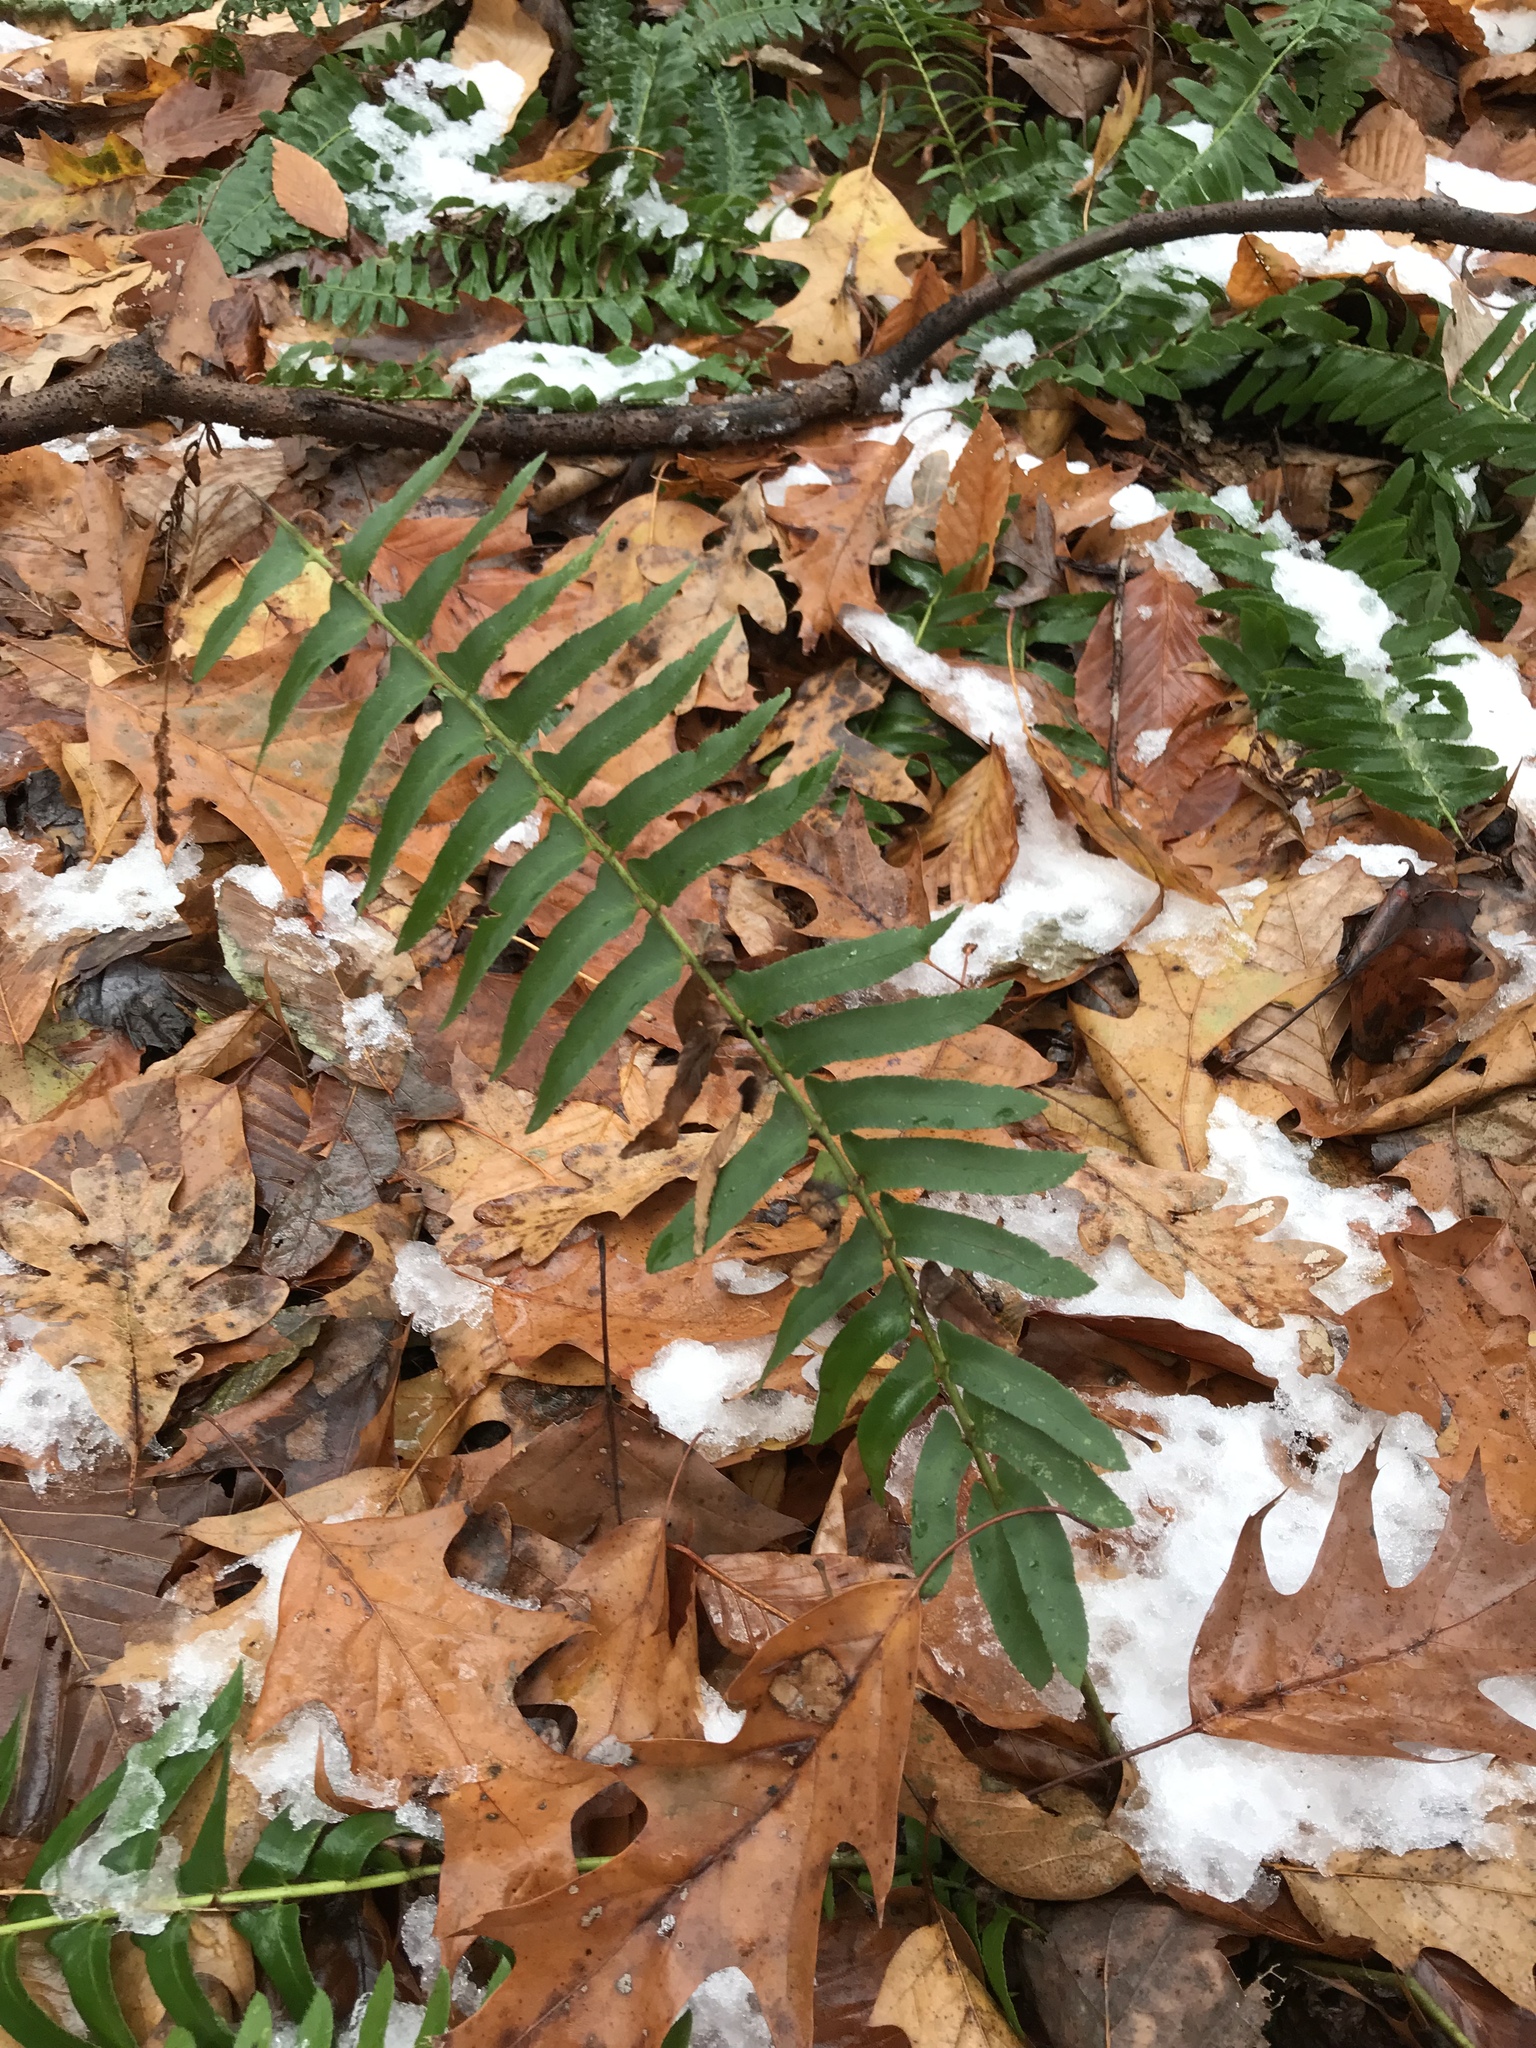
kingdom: Plantae
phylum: Tracheophyta
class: Polypodiopsida
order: Polypodiales
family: Dryopteridaceae
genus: Polystichum
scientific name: Polystichum acrostichoides
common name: Christmas fern
